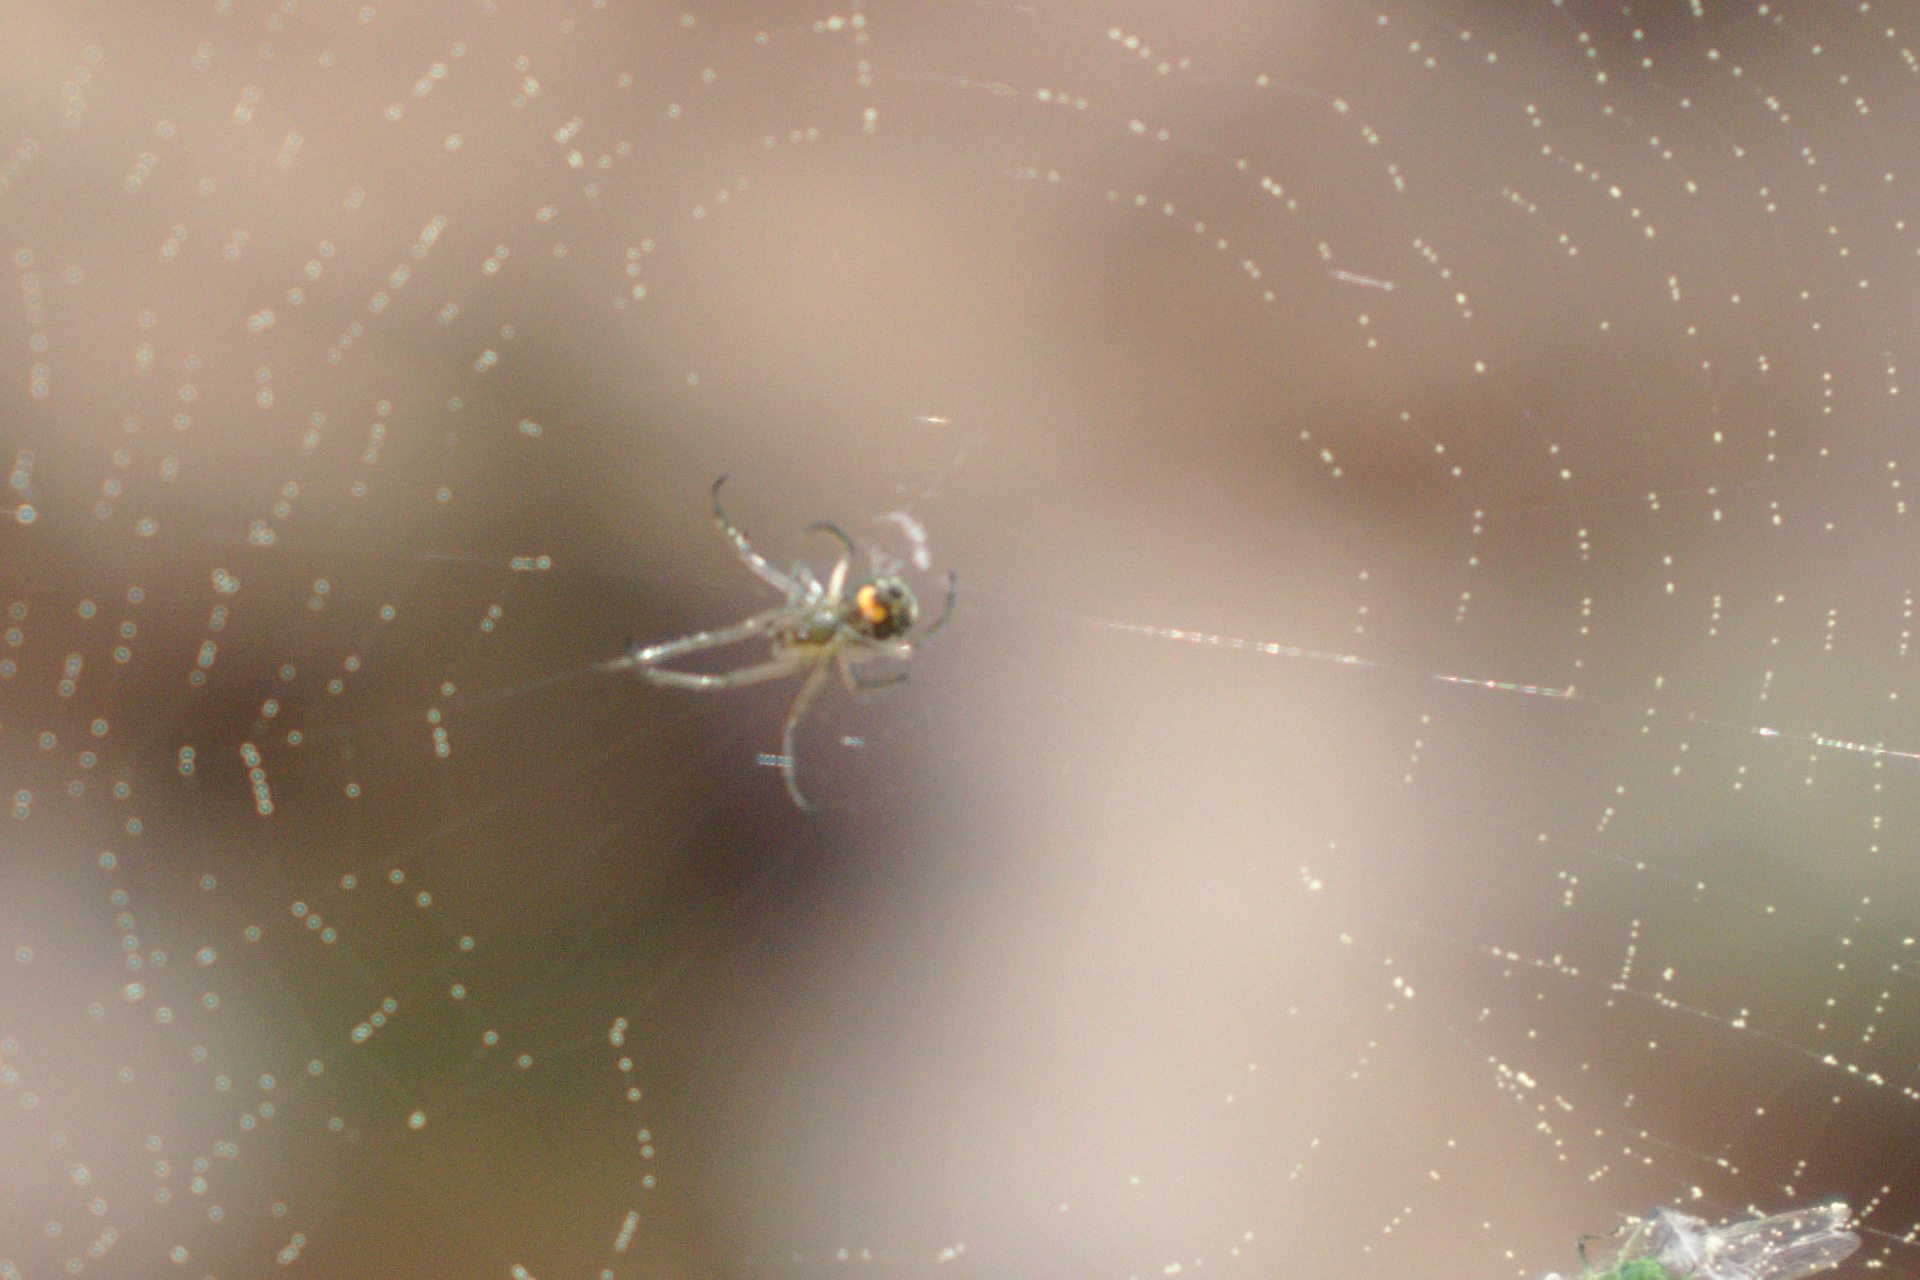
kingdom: Animalia
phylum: Arthropoda
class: Arachnida
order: Araneae
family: Tetragnathidae
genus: Leucauge
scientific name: Leucauge
